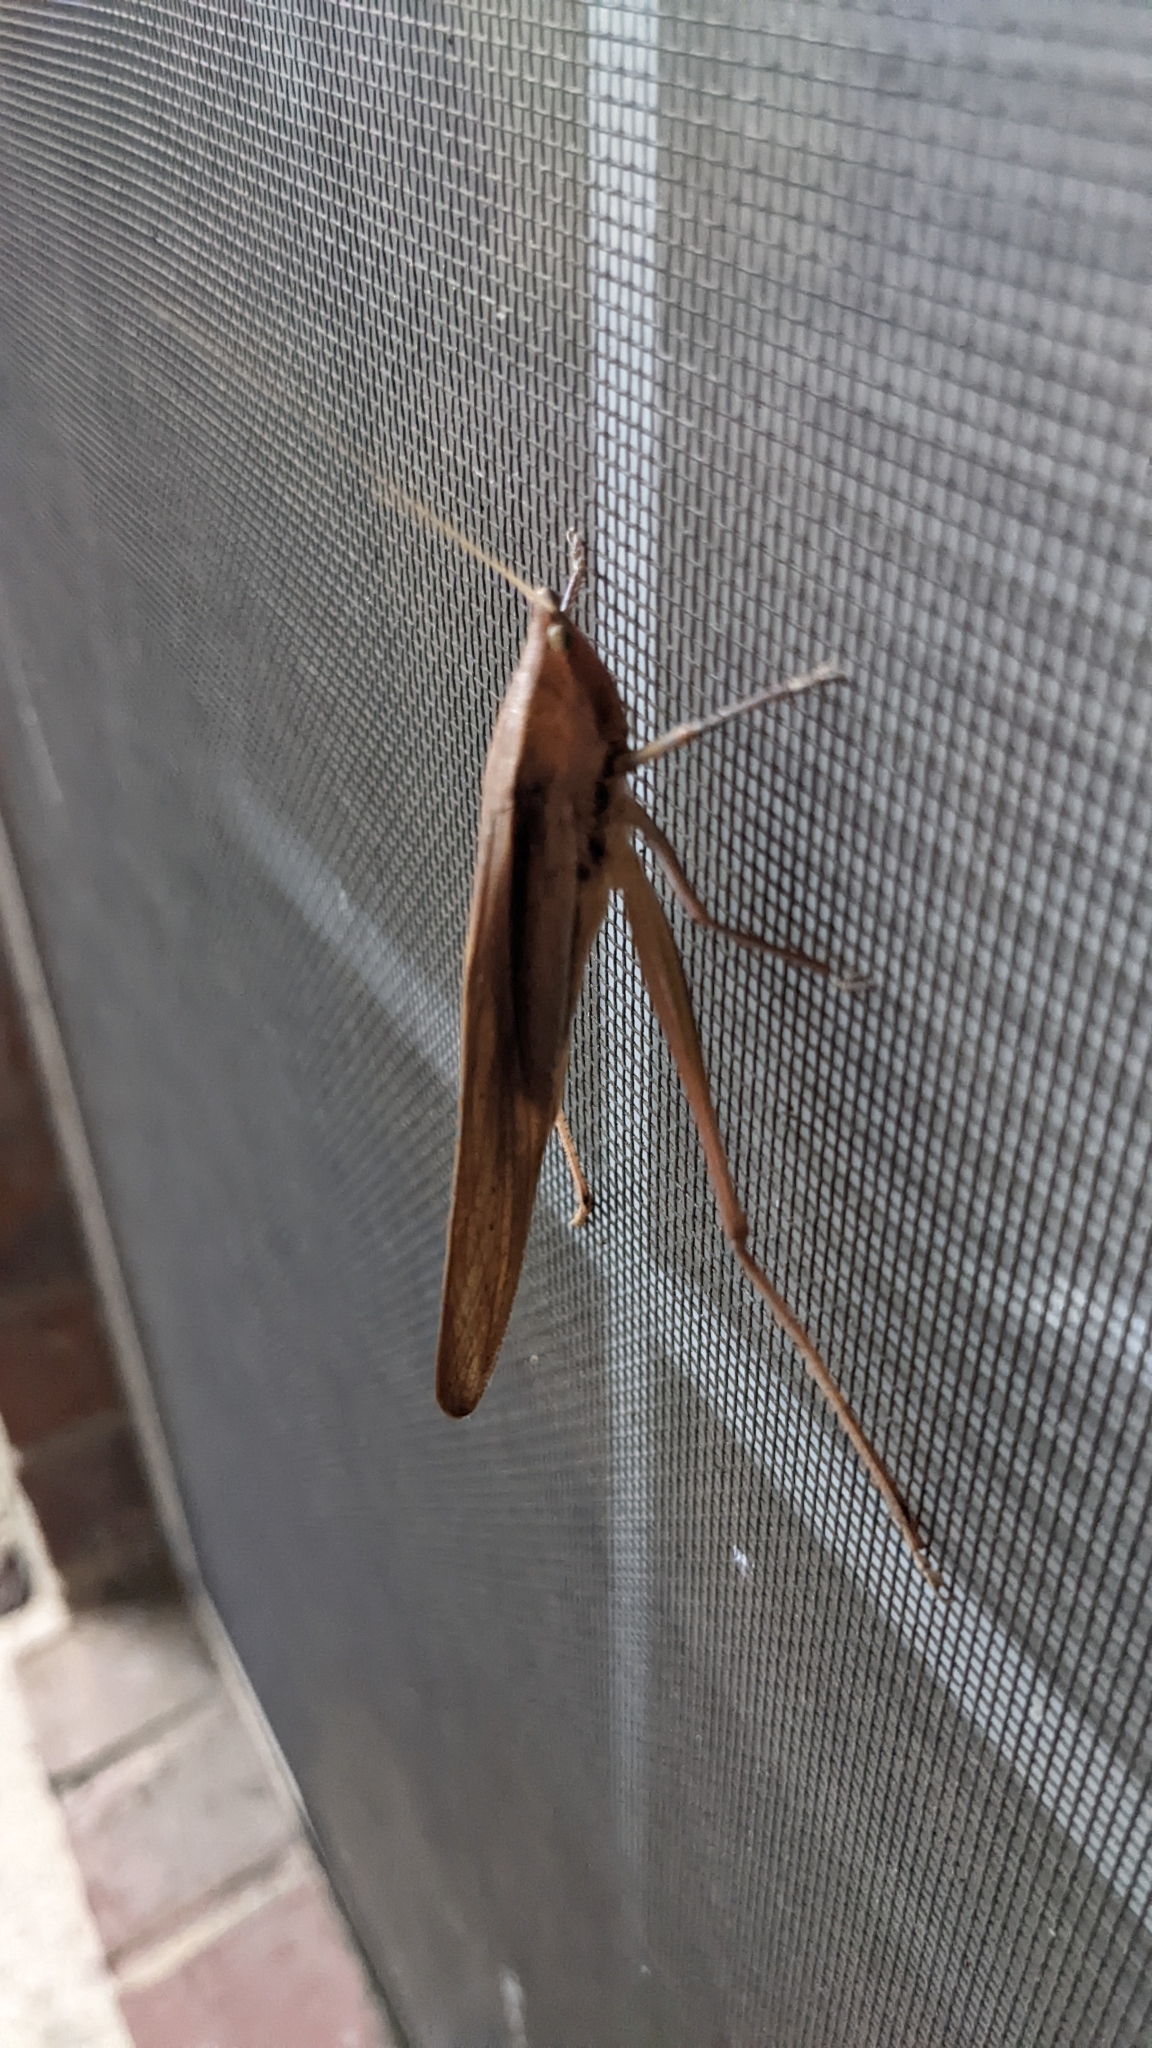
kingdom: Animalia
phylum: Arthropoda
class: Insecta
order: Orthoptera
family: Tettigoniidae
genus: Neoconocephalus
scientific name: Neoconocephalus triops
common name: Broad-tipped conehead
